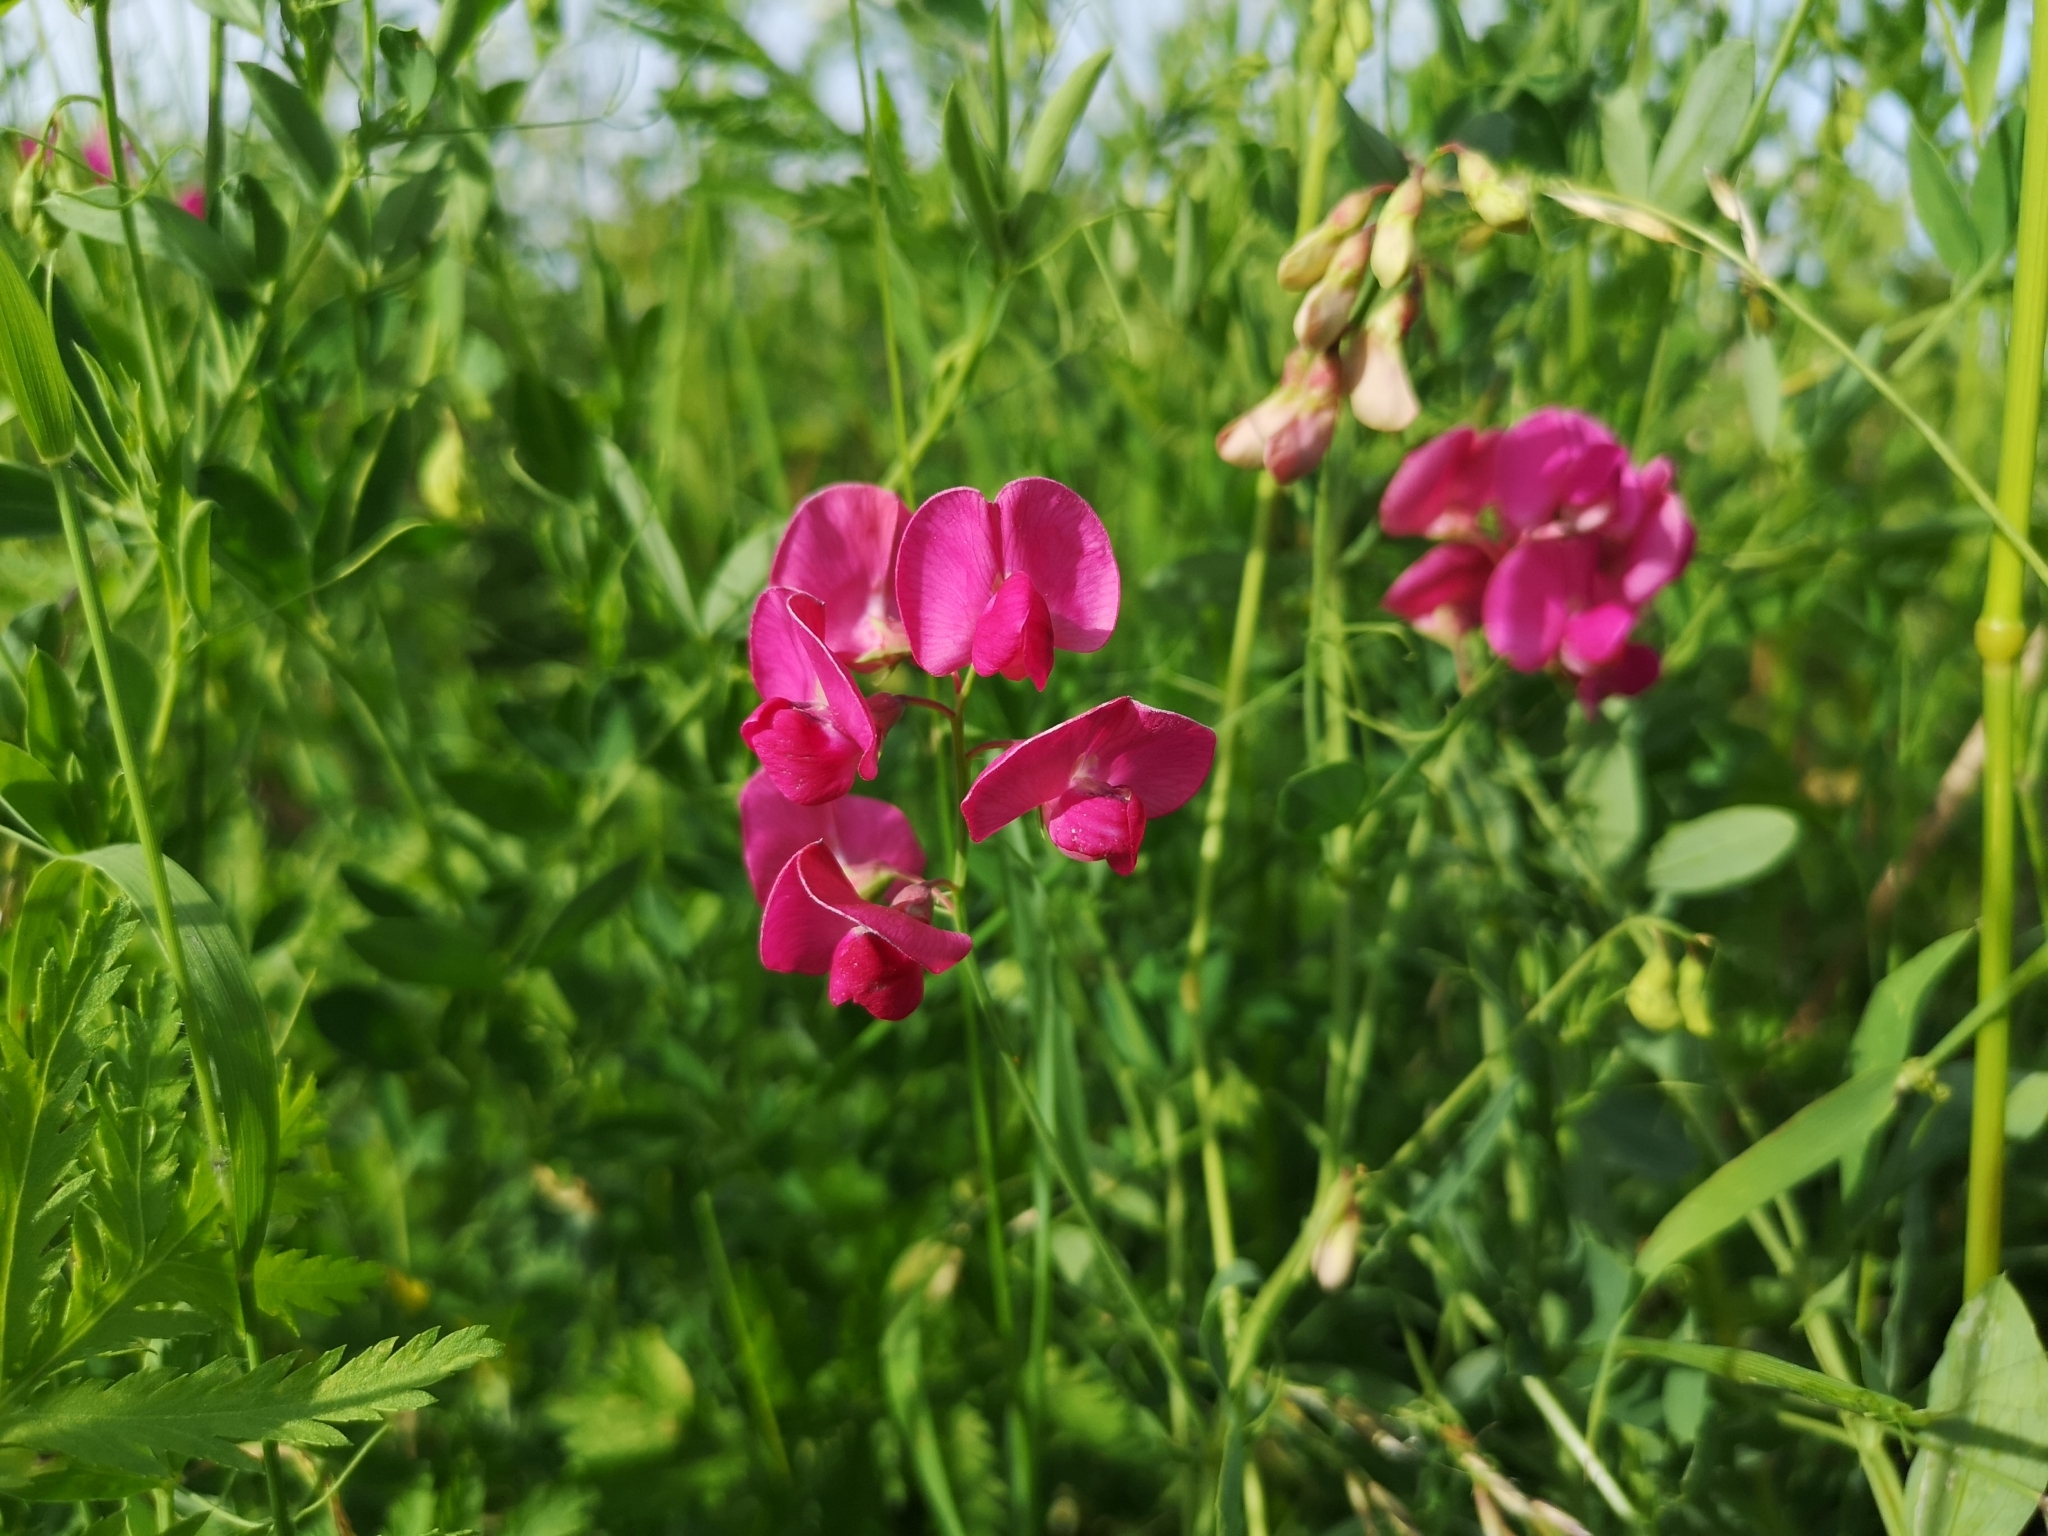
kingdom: Plantae
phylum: Tracheophyta
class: Magnoliopsida
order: Fabales
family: Fabaceae
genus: Lathyrus
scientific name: Lathyrus tuberosus
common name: Tuberous pea
